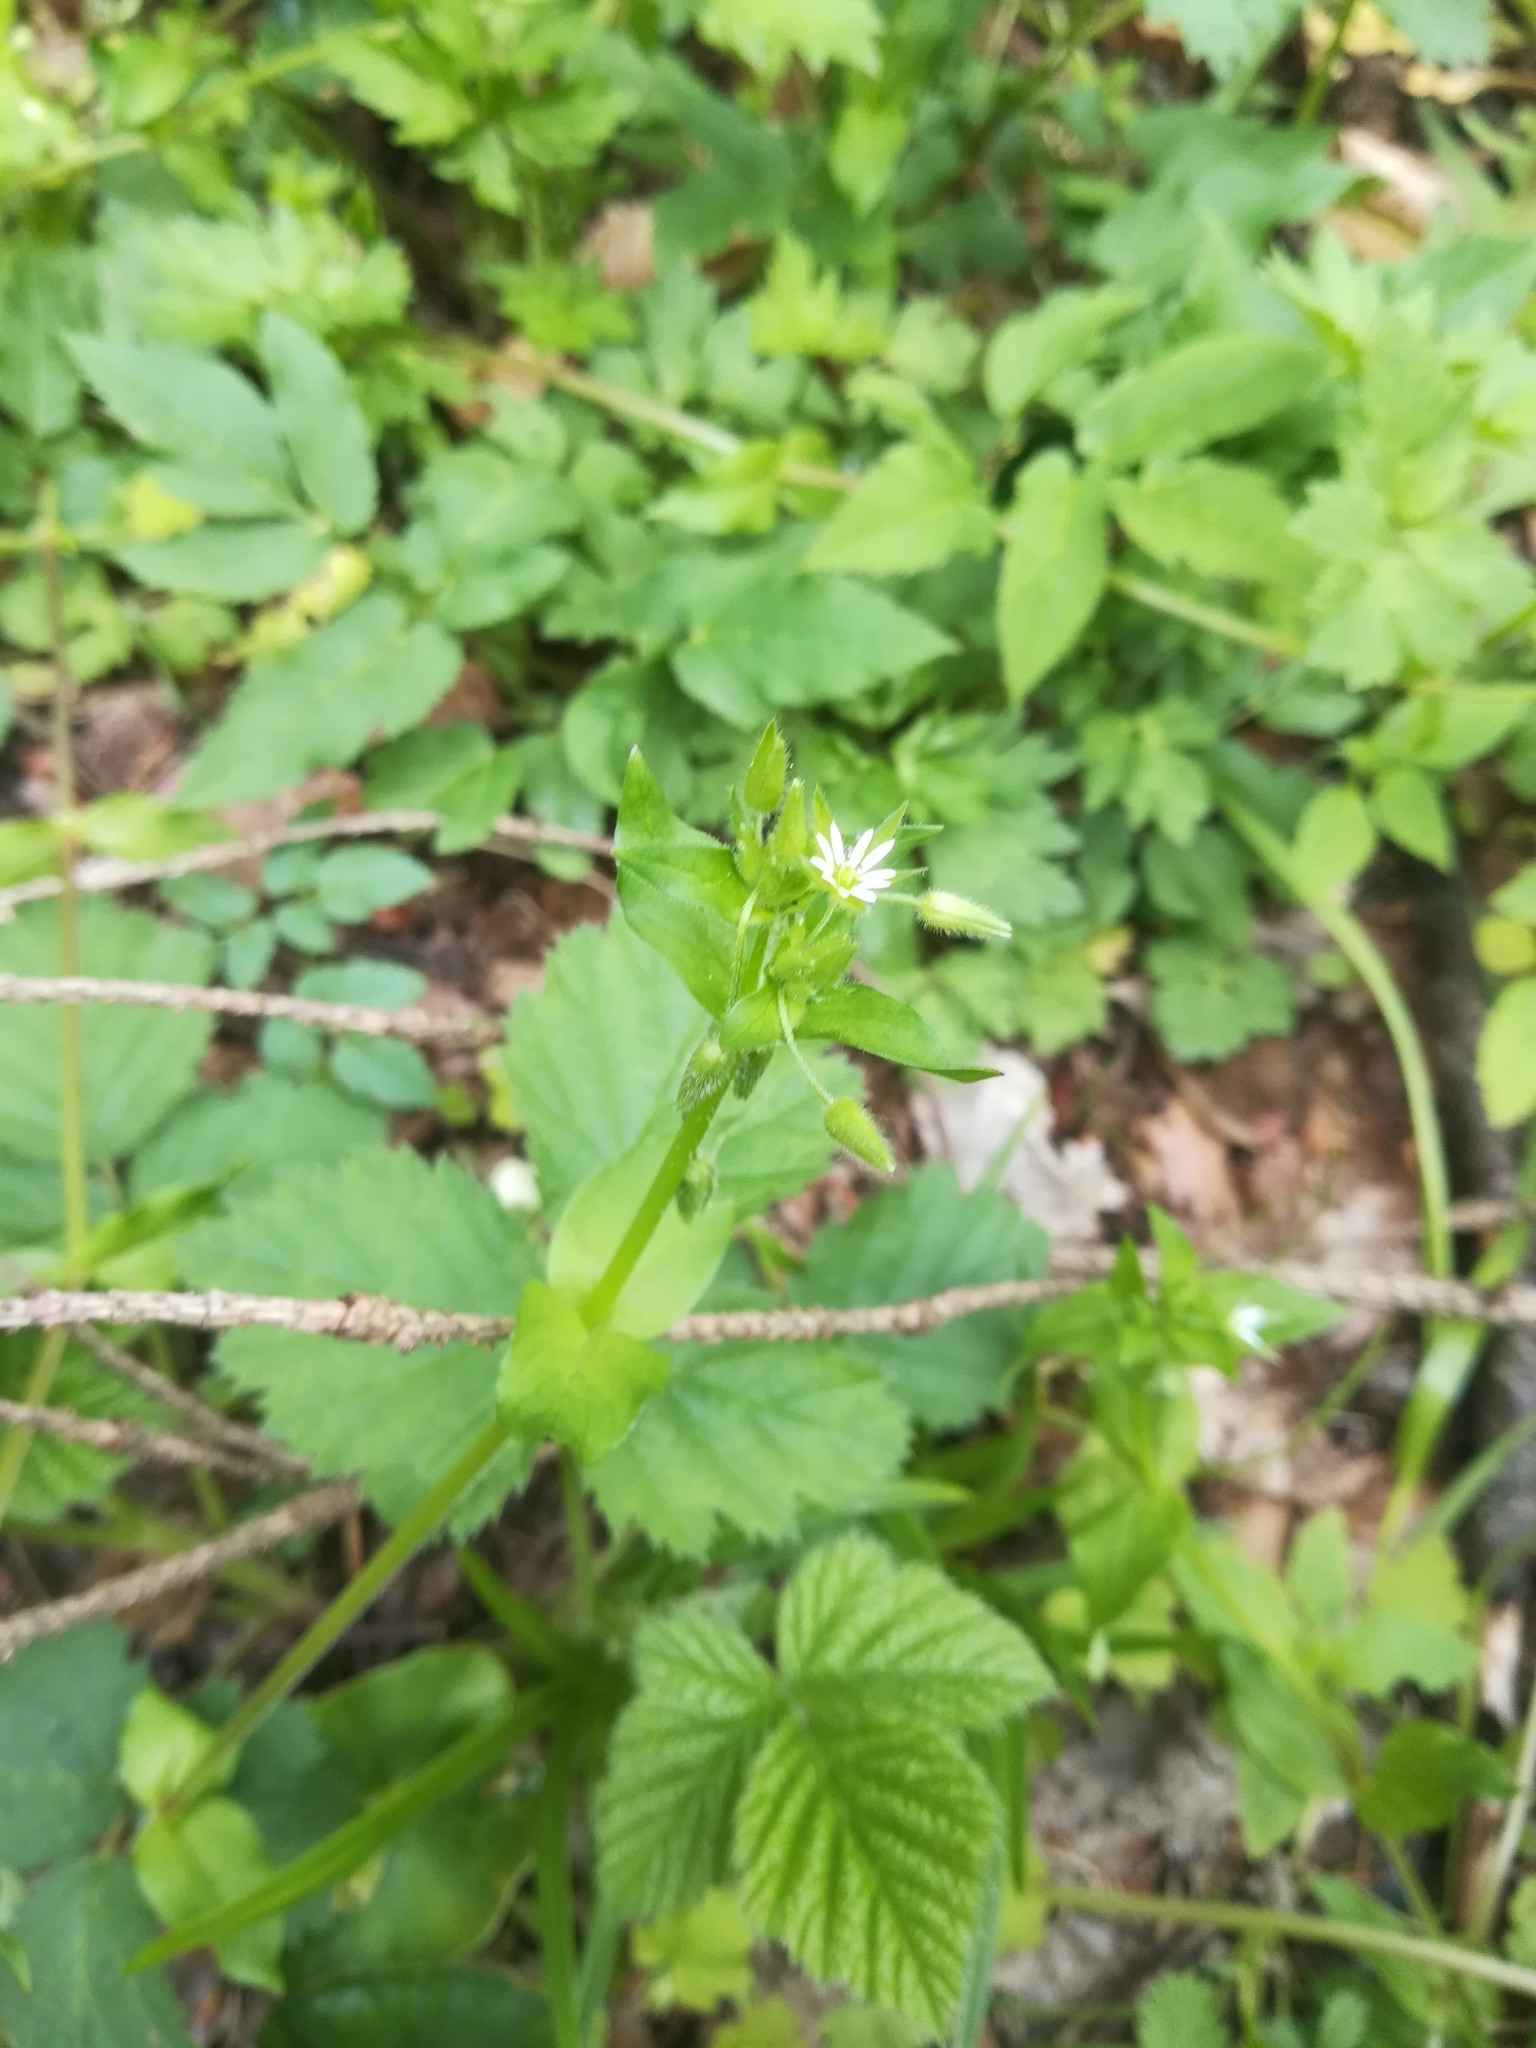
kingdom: Plantae
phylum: Tracheophyta
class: Magnoliopsida
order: Caryophyllales
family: Caryophyllaceae
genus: Stellaria
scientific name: Stellaria media
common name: Common chickweed
